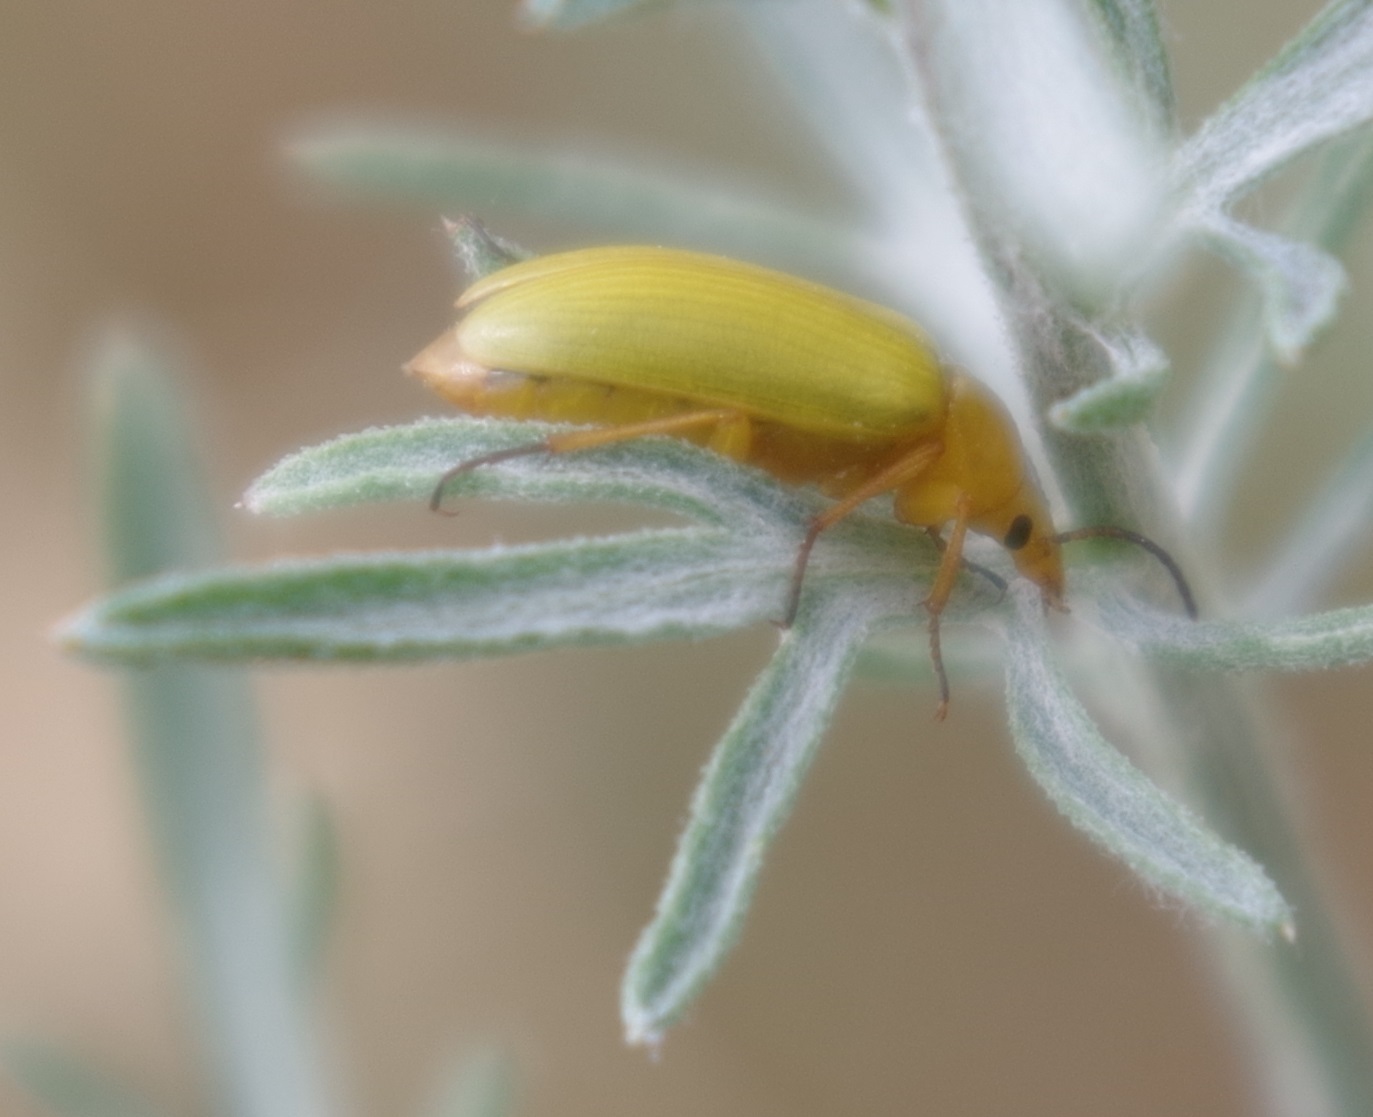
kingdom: Animalia
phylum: Arthropoda
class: Insecta
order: Coleoptera
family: Tenebrionidae
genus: Cteniopus
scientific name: Cteniopus sulphureus
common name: Sulphur beetle
